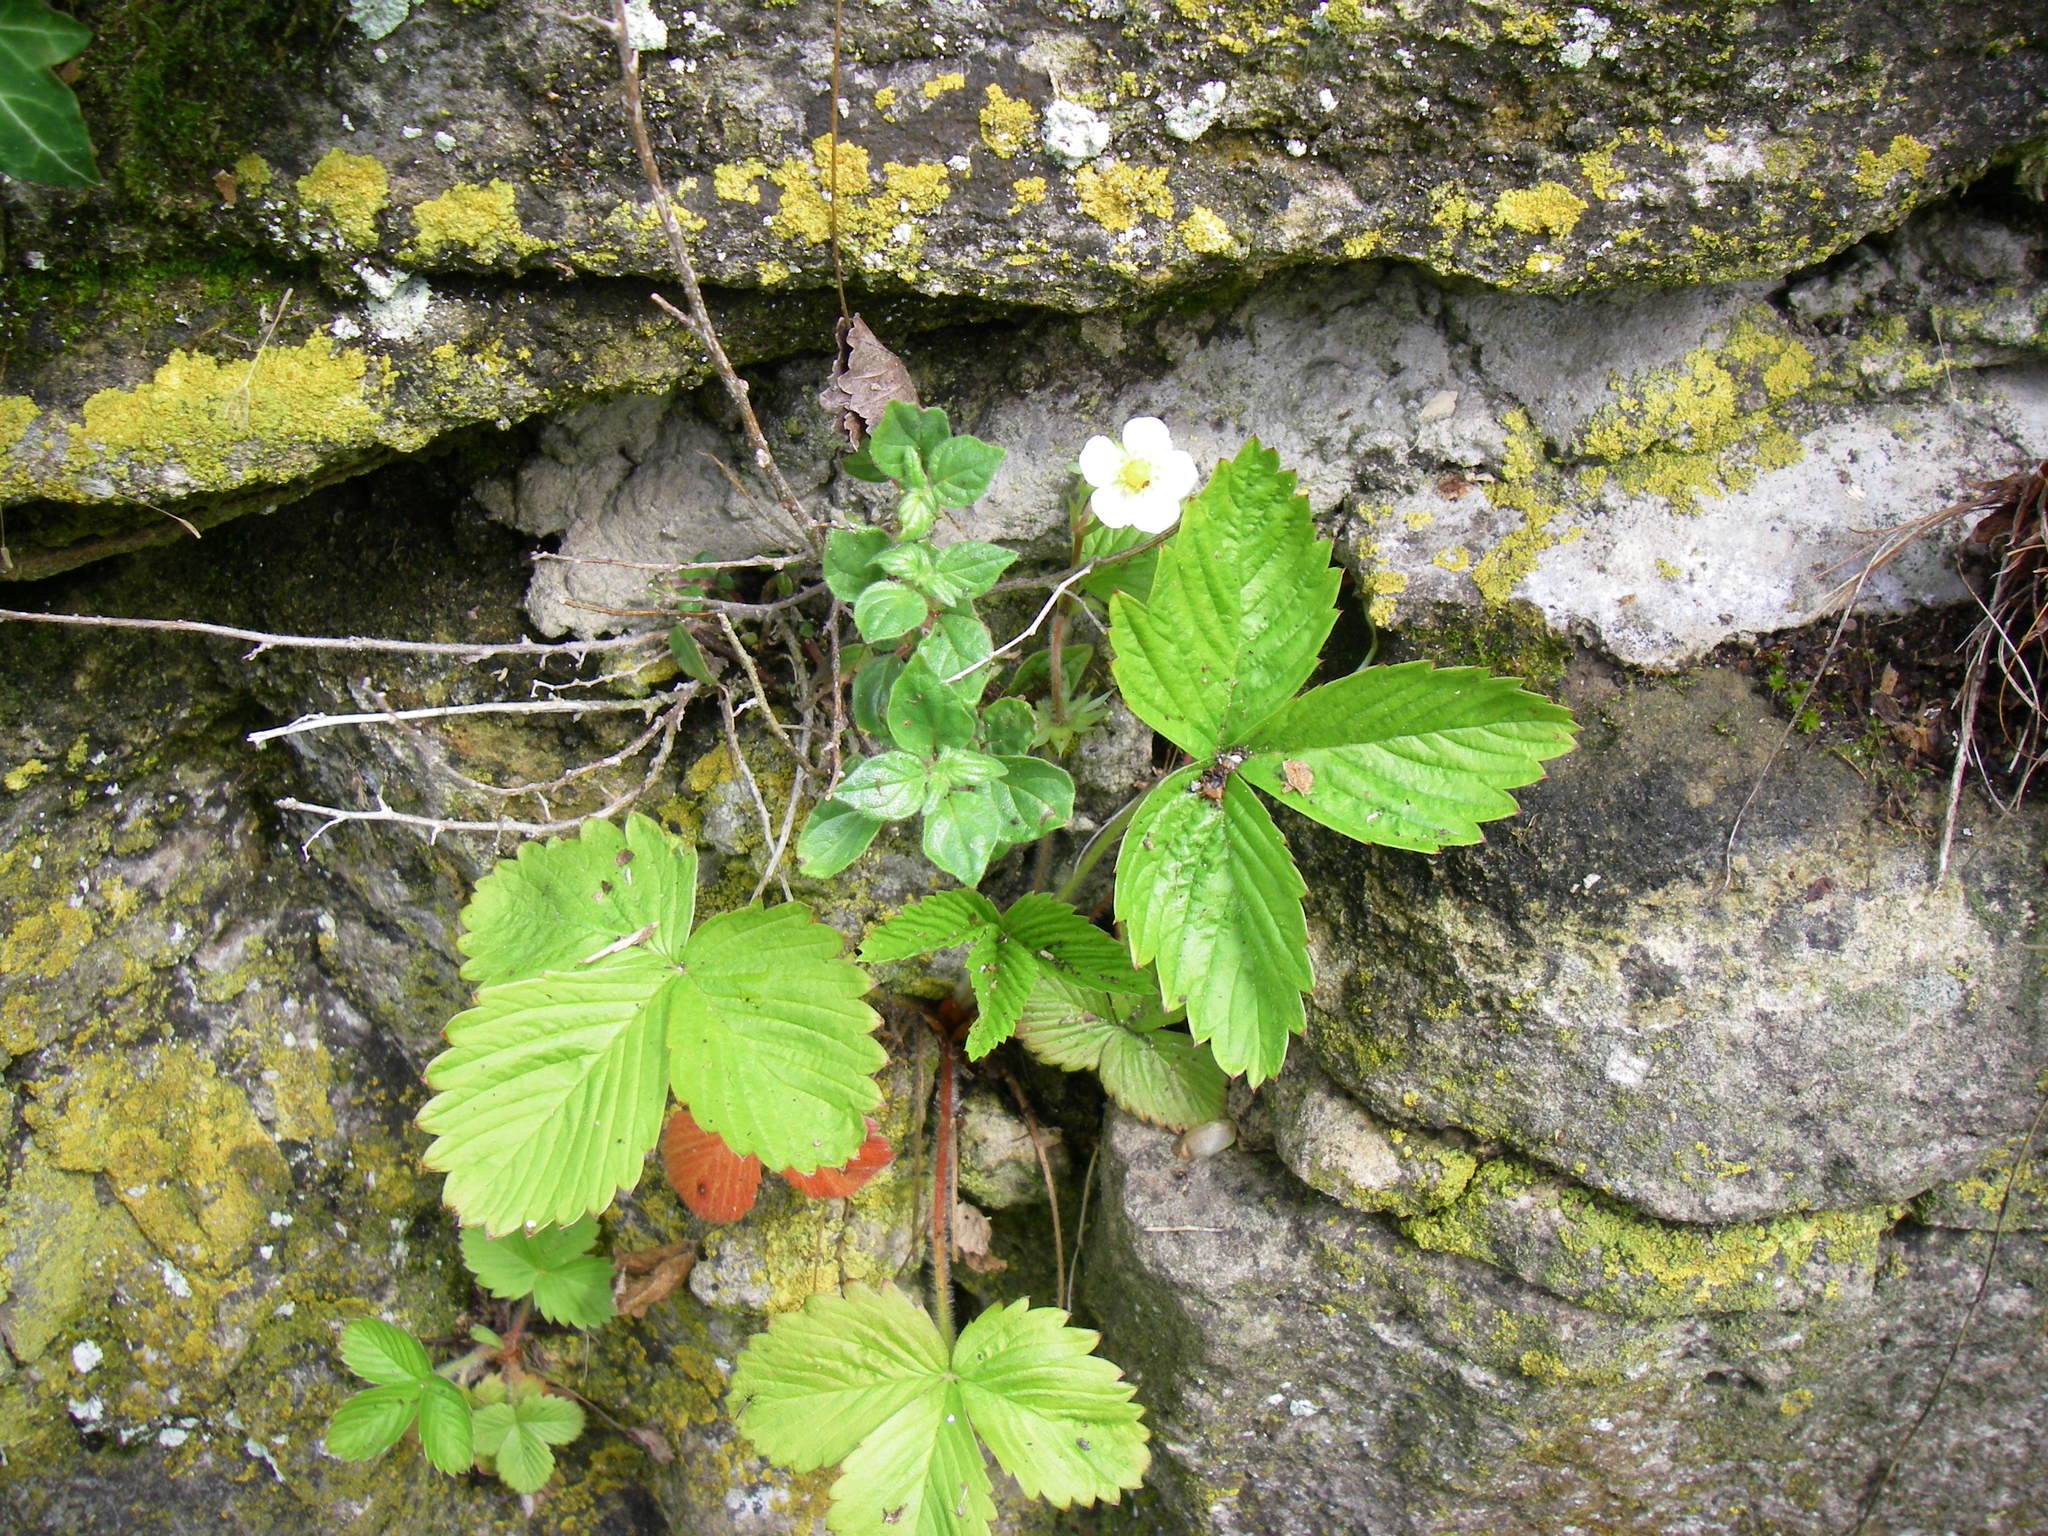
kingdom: Plantae
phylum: Tracheophyta
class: Magnoliopsida
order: Rosales
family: Rosaceae
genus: Fragaria
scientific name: Fragaria vesca
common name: Wild strawberry
